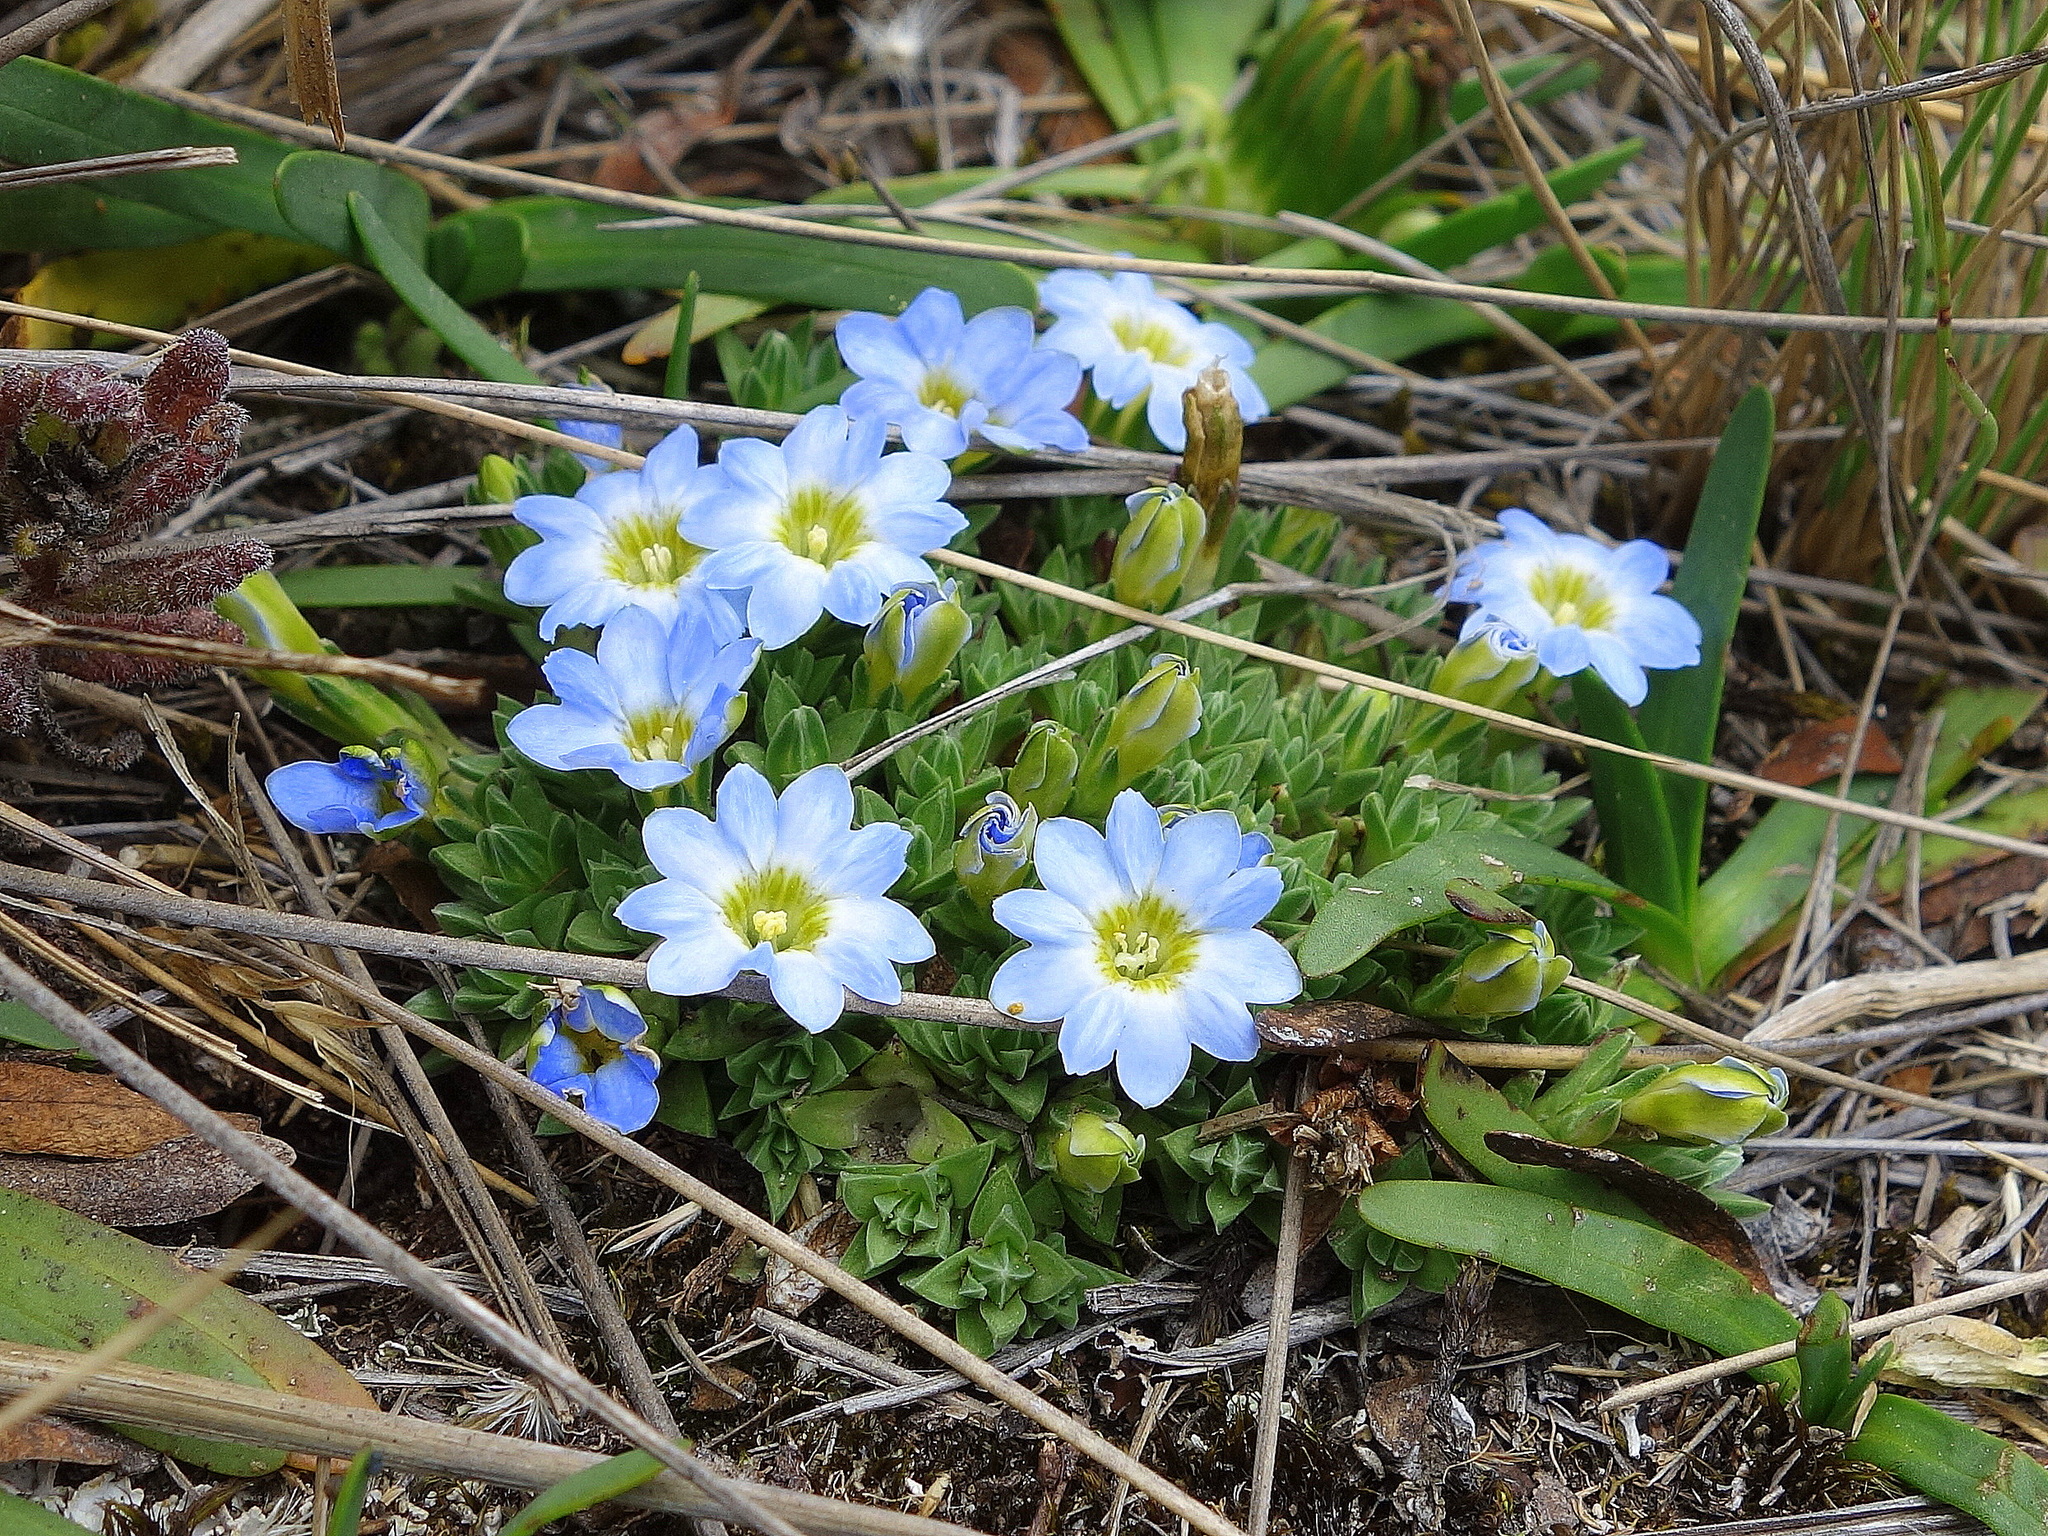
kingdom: Plantae
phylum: Tracheophyta
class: Magnoliopsida
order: Gentianales
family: Gentianaceae
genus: Gentiana
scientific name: Gentiana sedifolia
